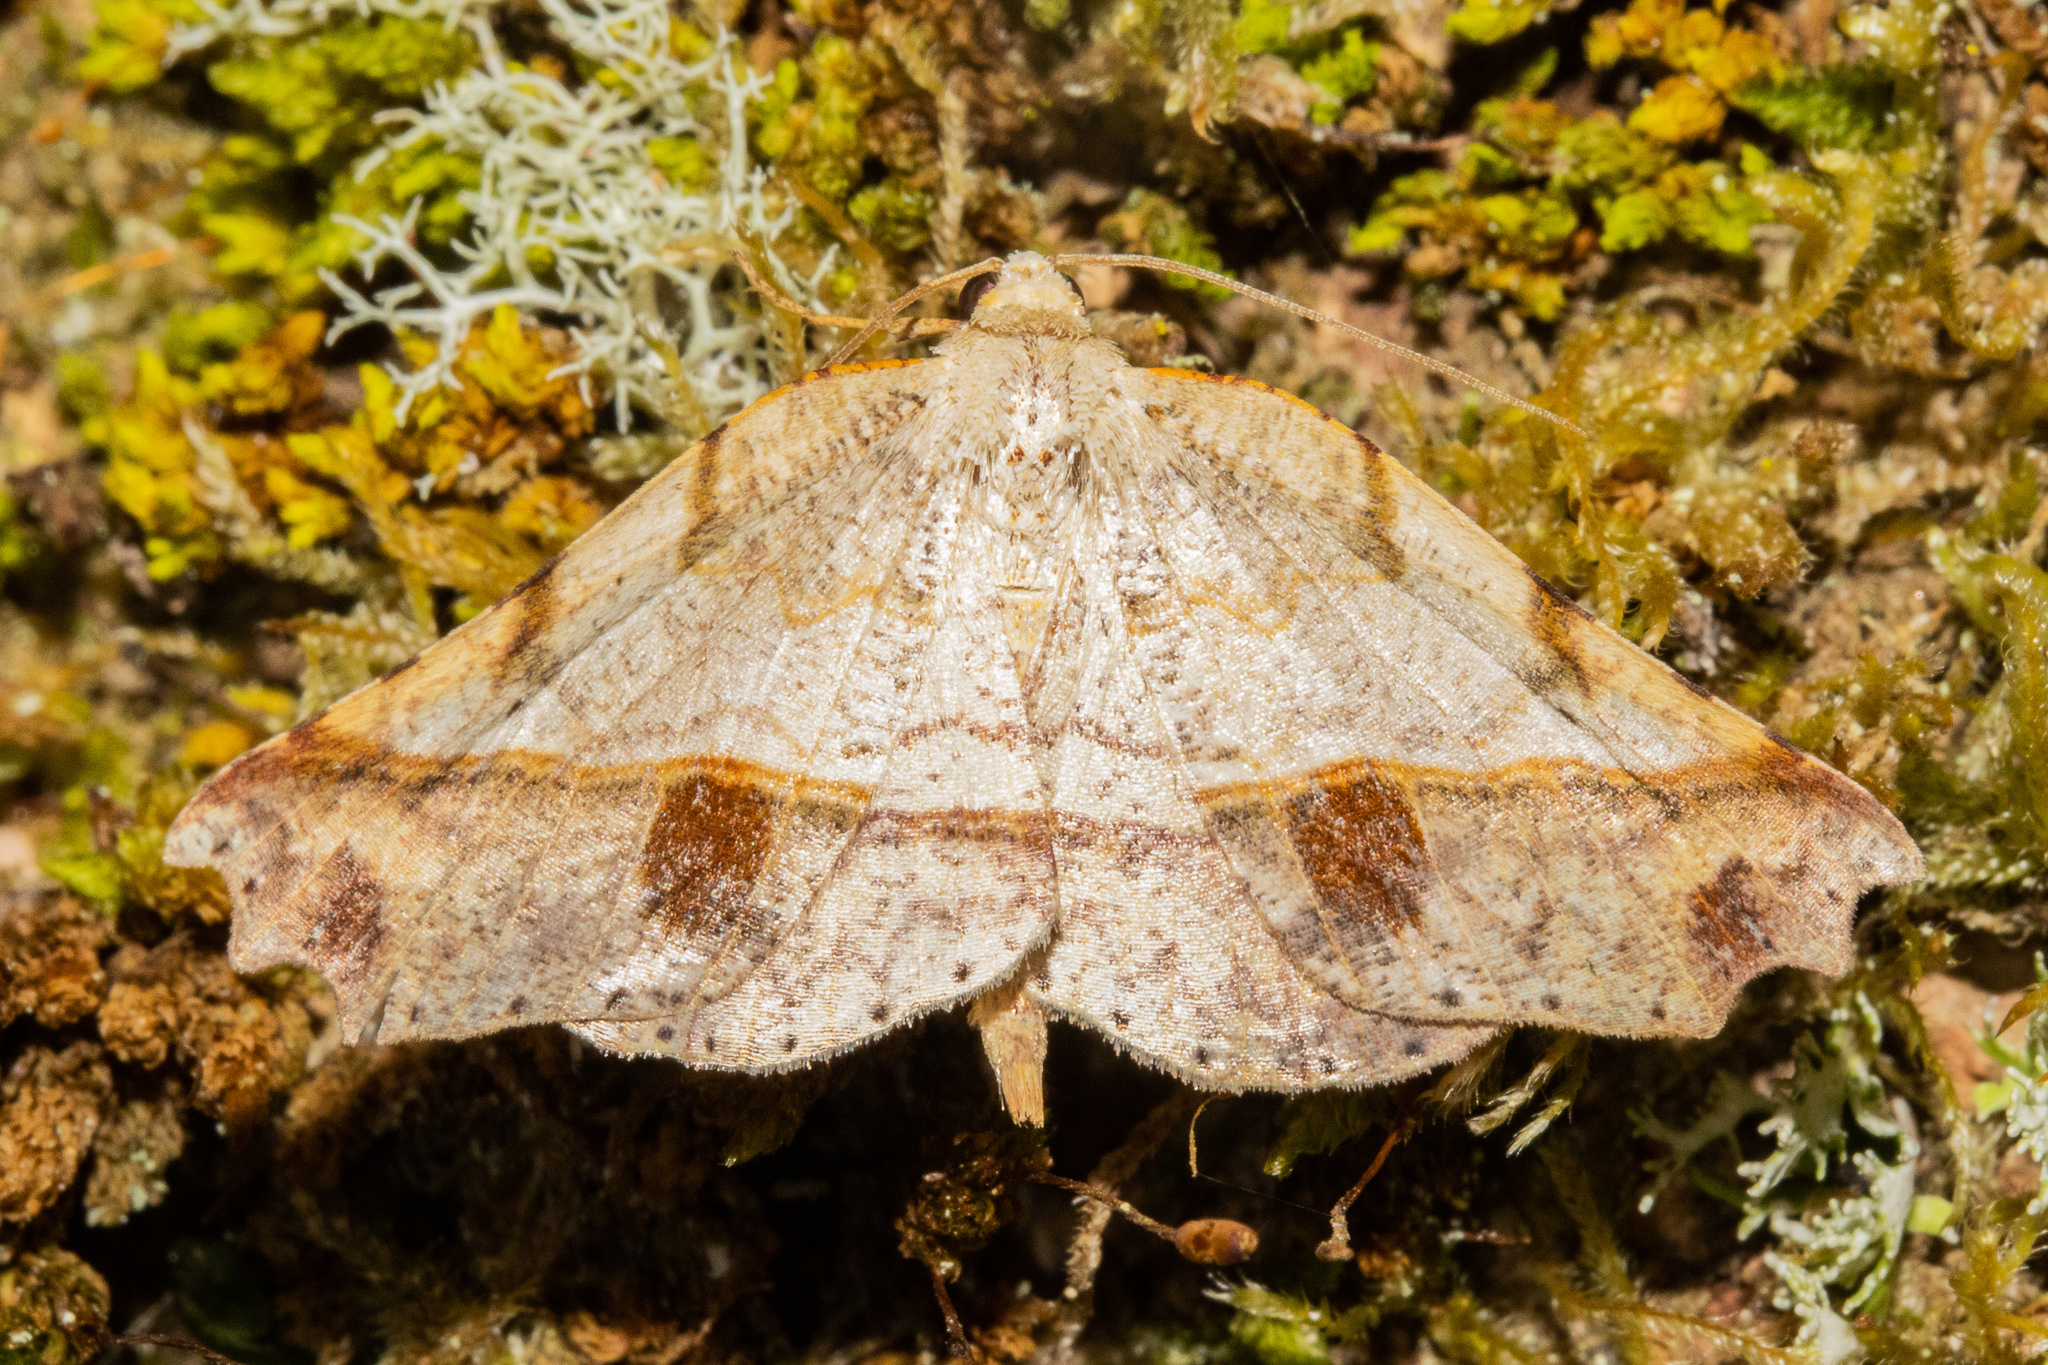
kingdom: Animalia
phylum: Arthropoda
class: Insecta
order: Lepidoptera
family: Geometridae
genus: Ischalis
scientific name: Ischalis gallaria
